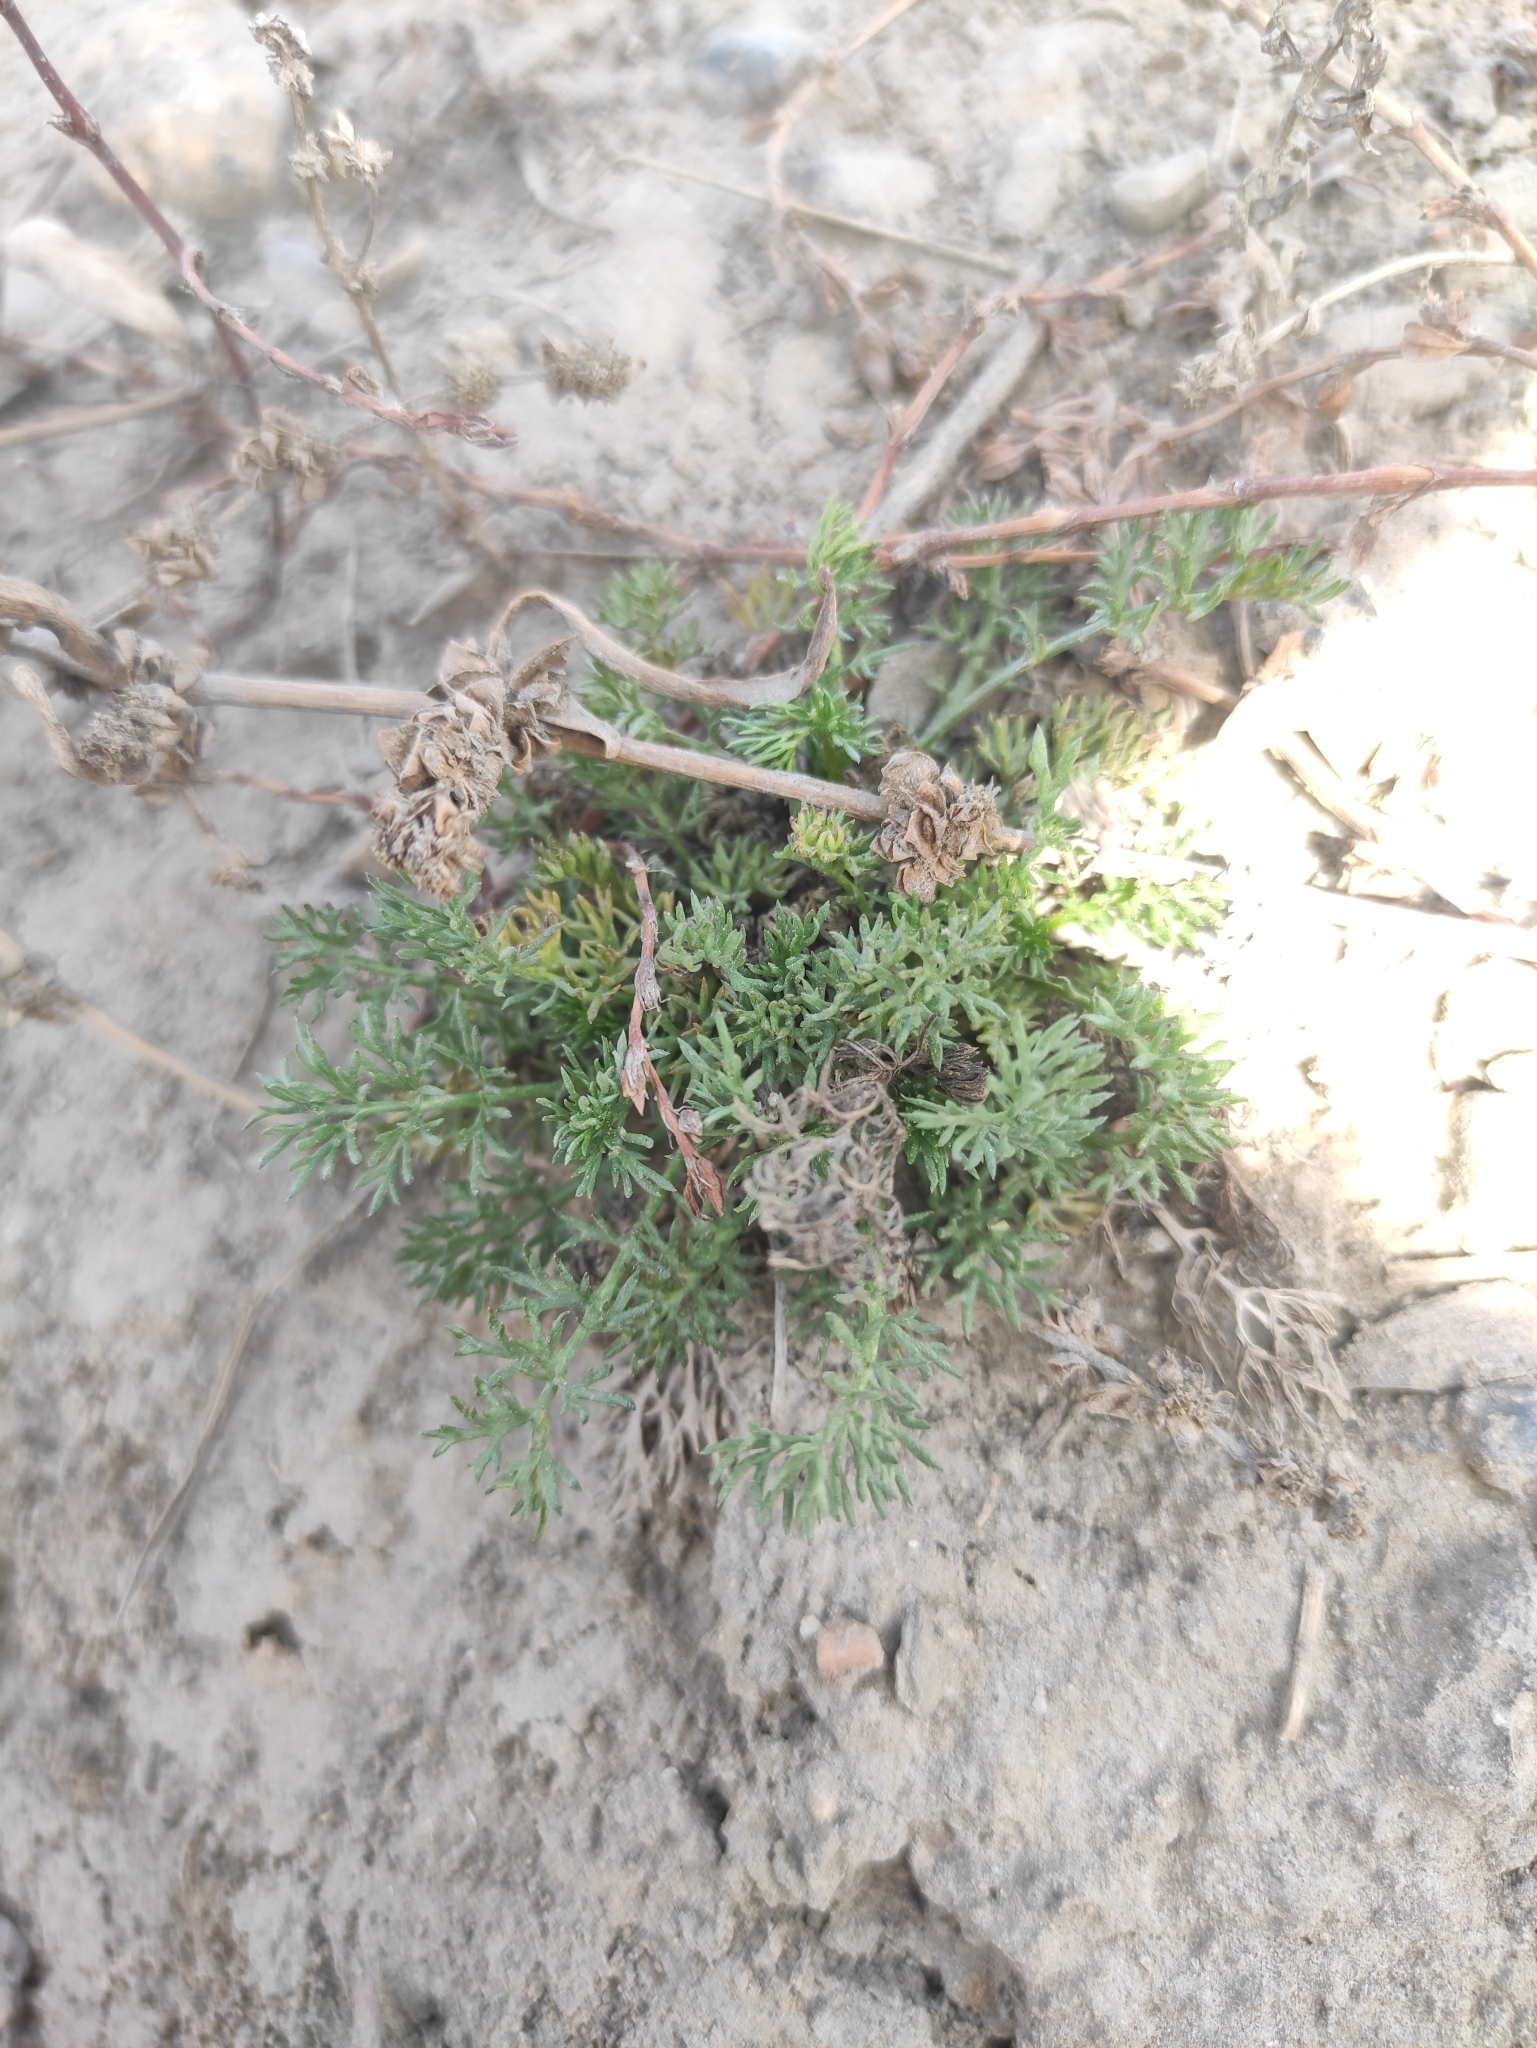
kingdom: Plantae
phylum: Tracheophyta
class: Magnoliopsida
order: Asterales
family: Asteraceae
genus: Tripleurospermum
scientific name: Tripleurospermum inodorum
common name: Scentless mayweed
